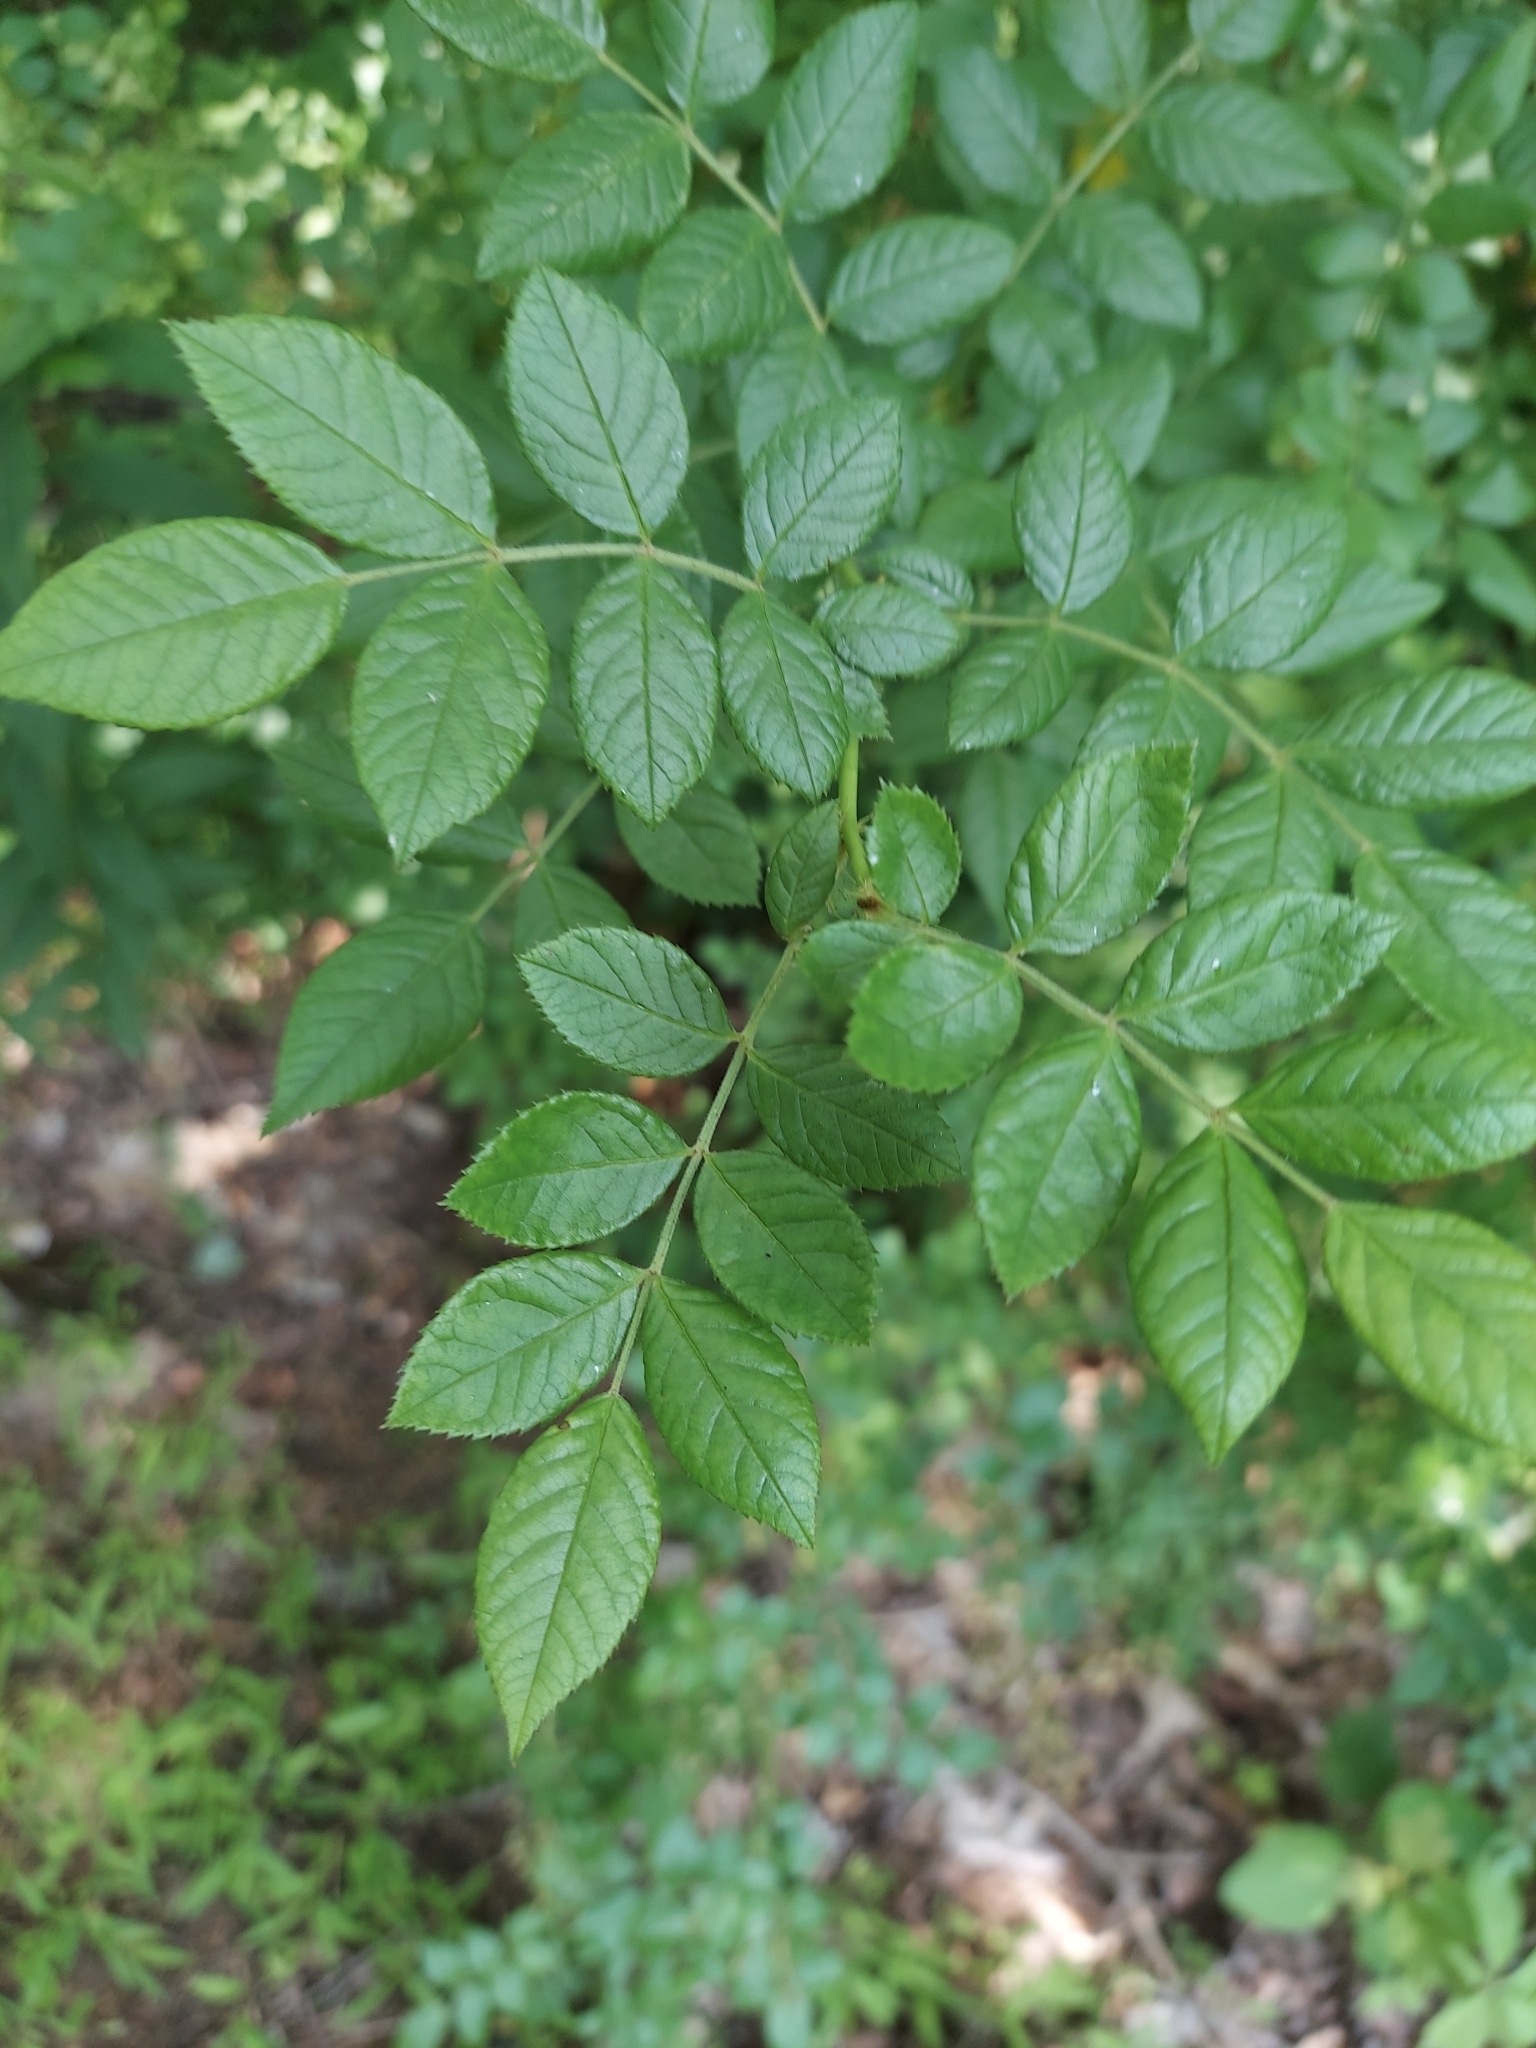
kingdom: Plantae
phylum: Tracheophyta
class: Magnoliopsida
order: Rosales
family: Rosaceae
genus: Rosa
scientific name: Rosa multiflora
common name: Multiflora rose
